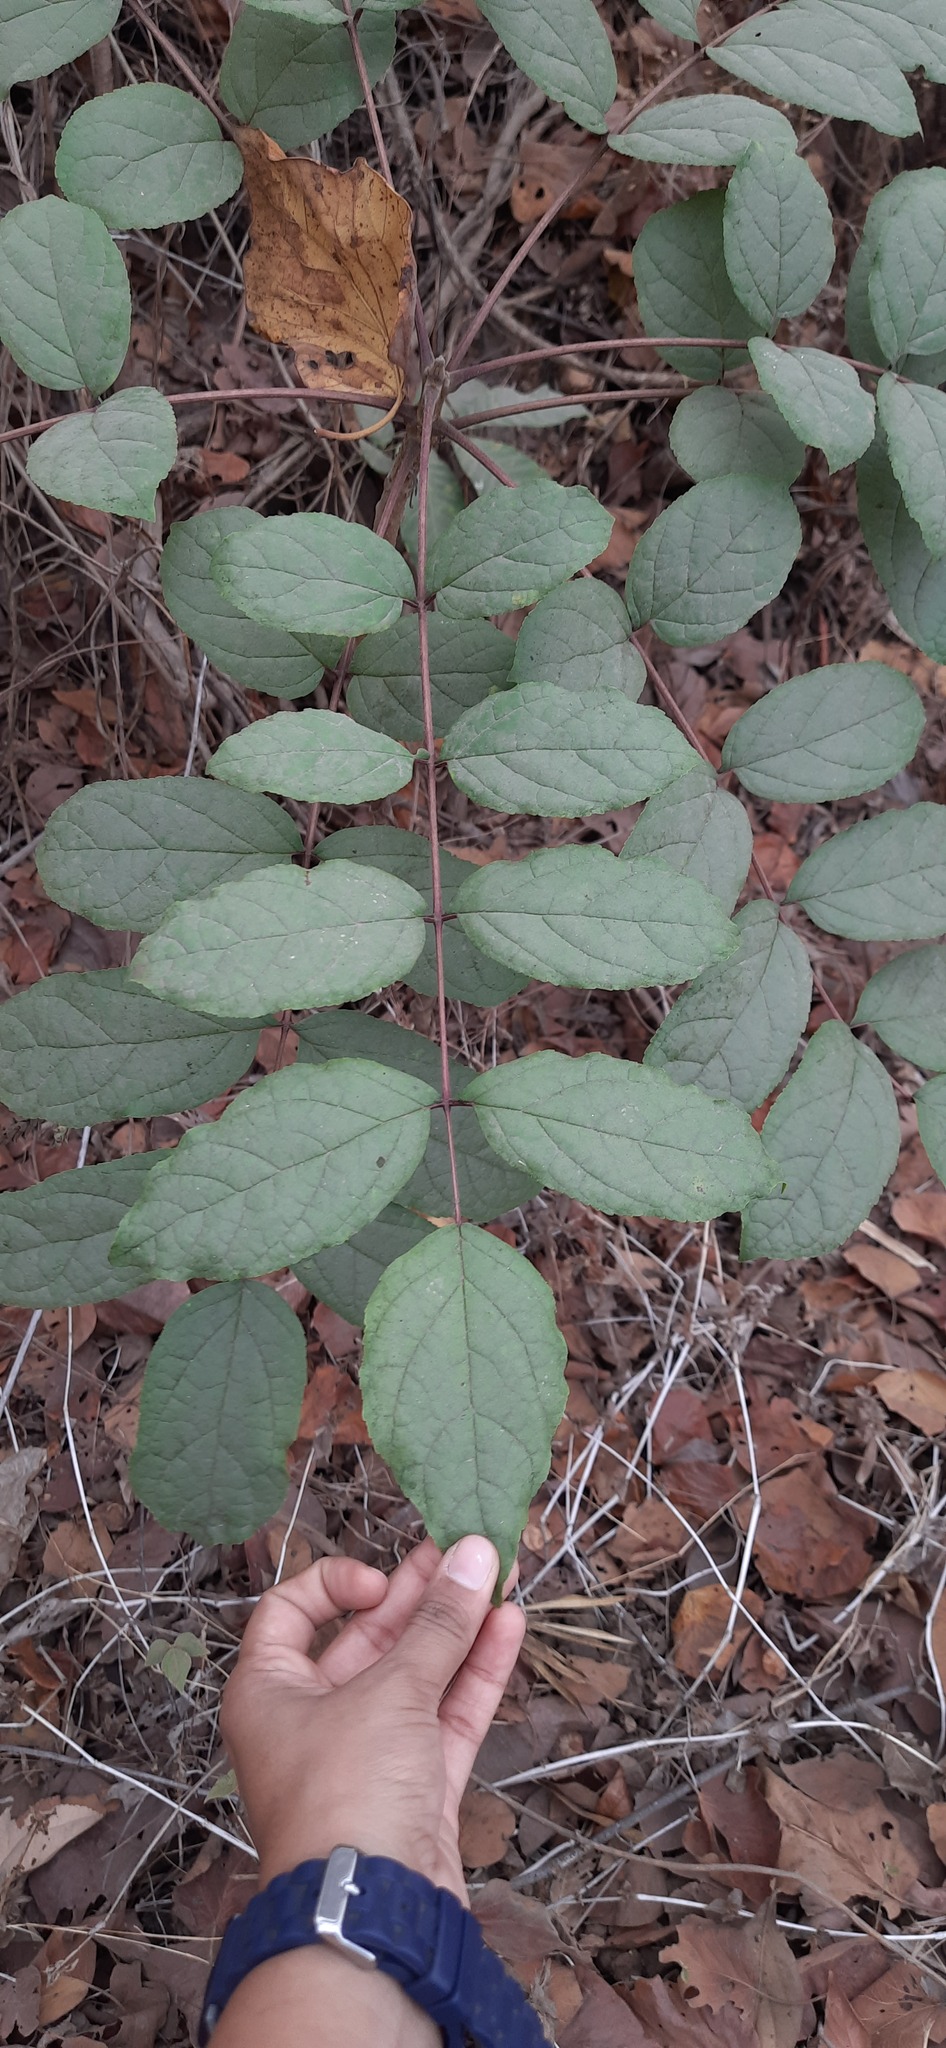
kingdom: Plantae
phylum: Tracheophyta
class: Magnoliopsida
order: Lamiales
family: Bignoniaceae
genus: Heterophragma
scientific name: Heterophragma quadriloculare
